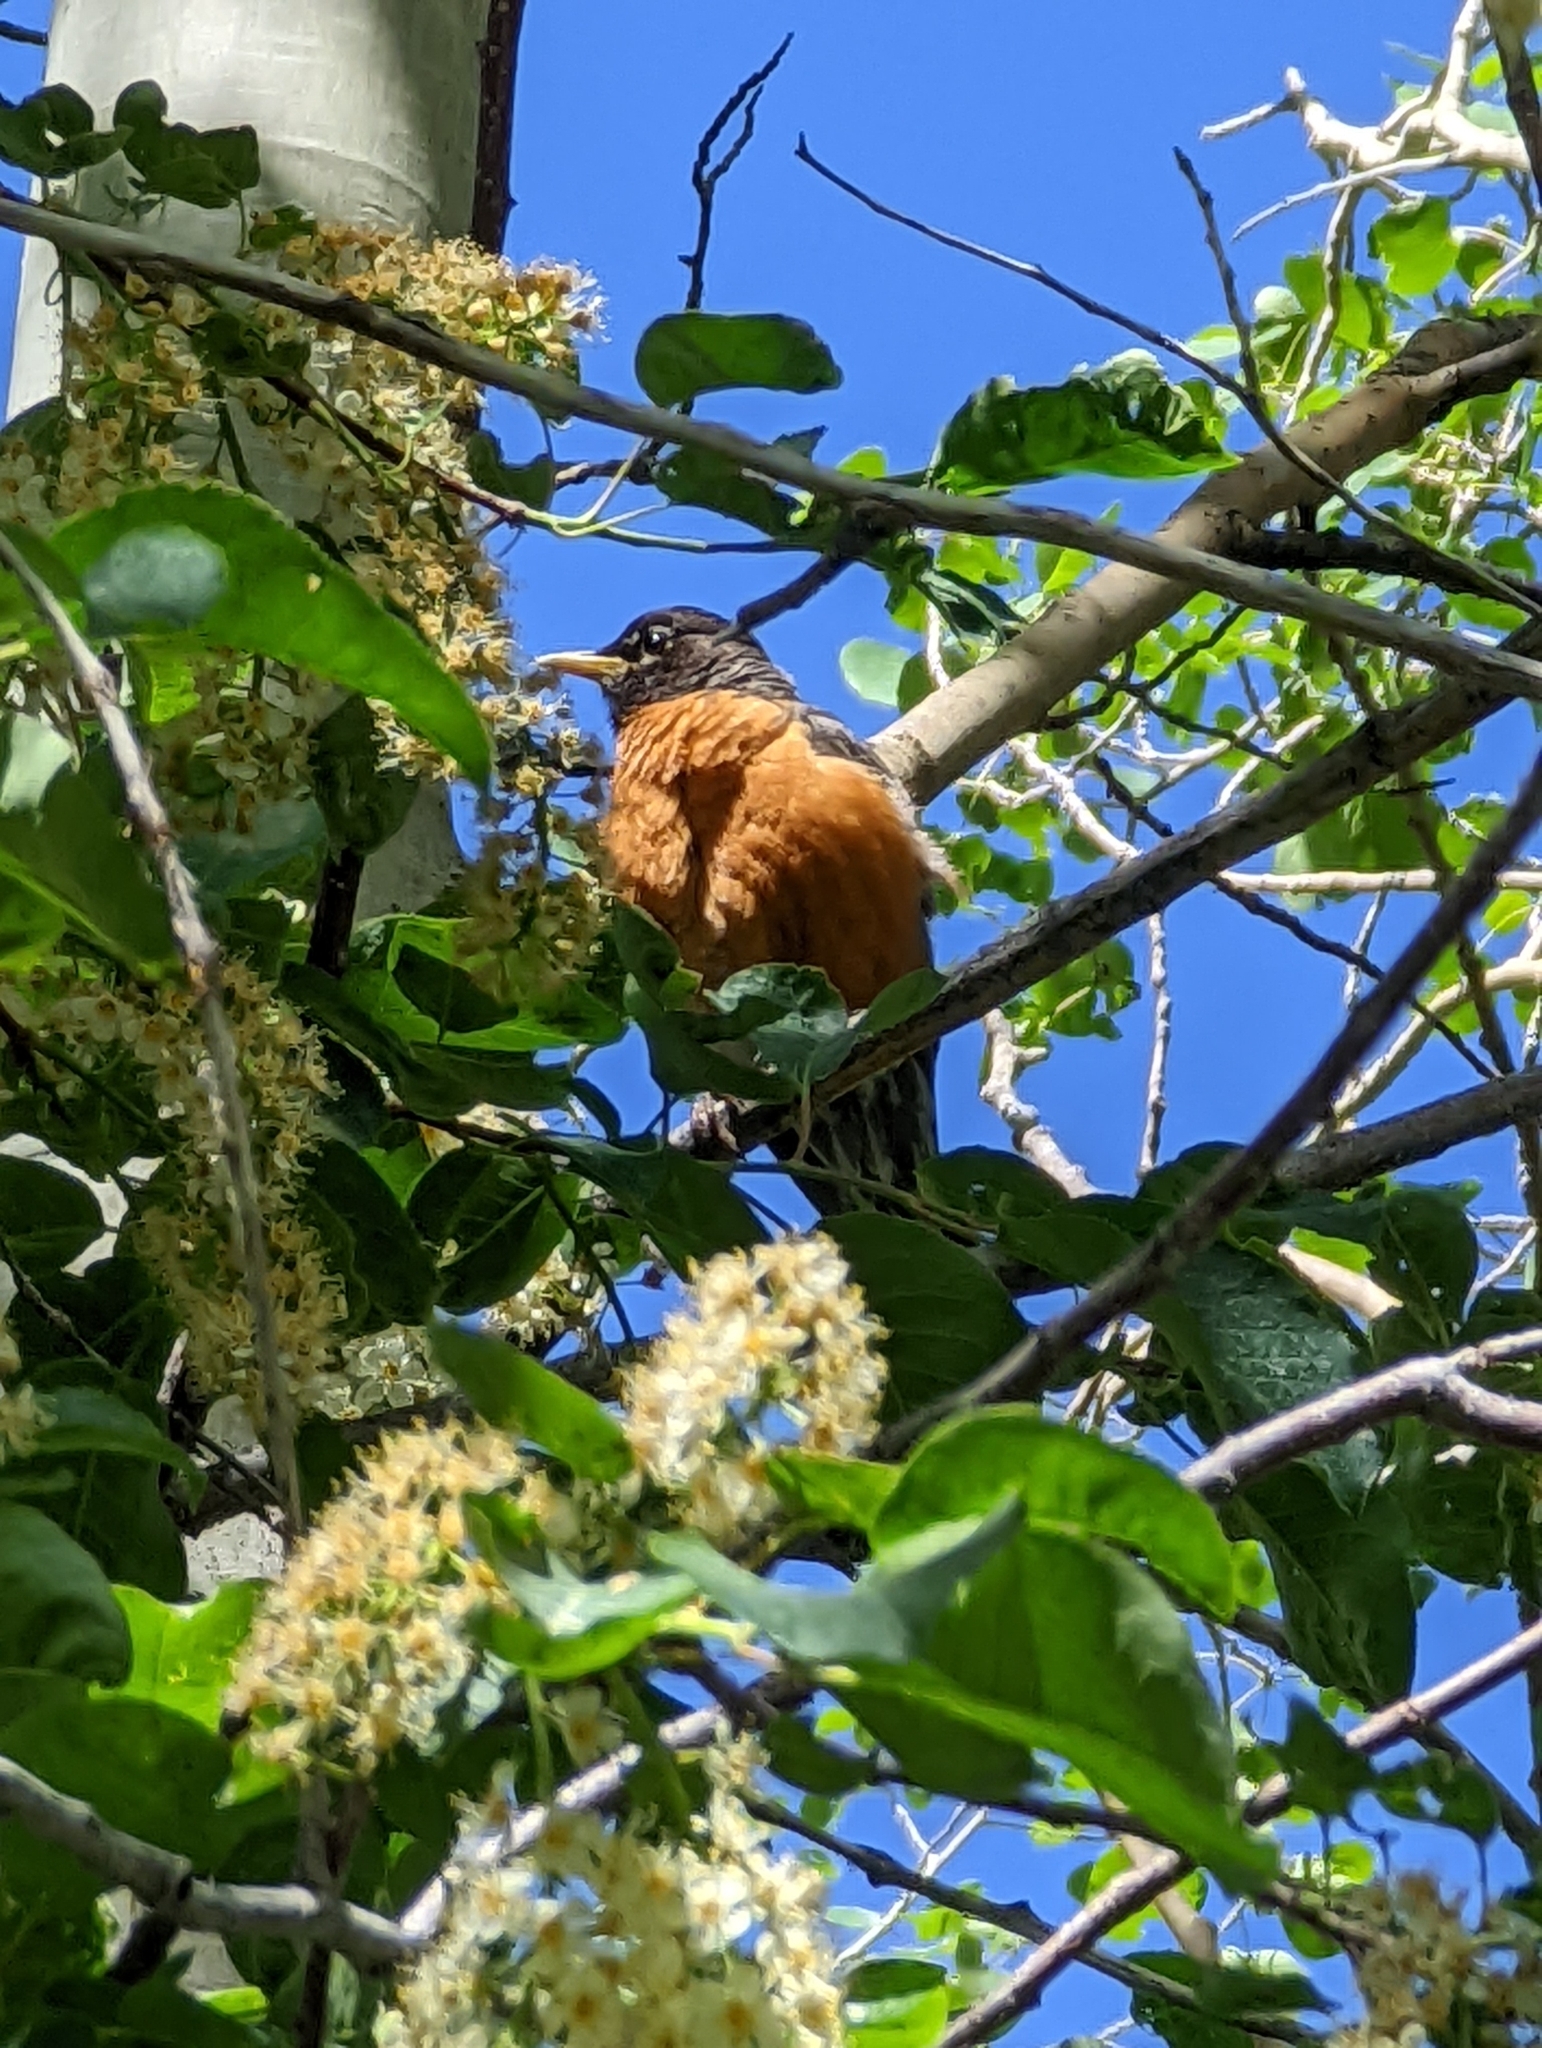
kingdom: Animalia
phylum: Chordata
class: Aves
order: Passeriformes
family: Turdidae
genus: Turdus
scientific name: Turdus migratorius
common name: American robin
